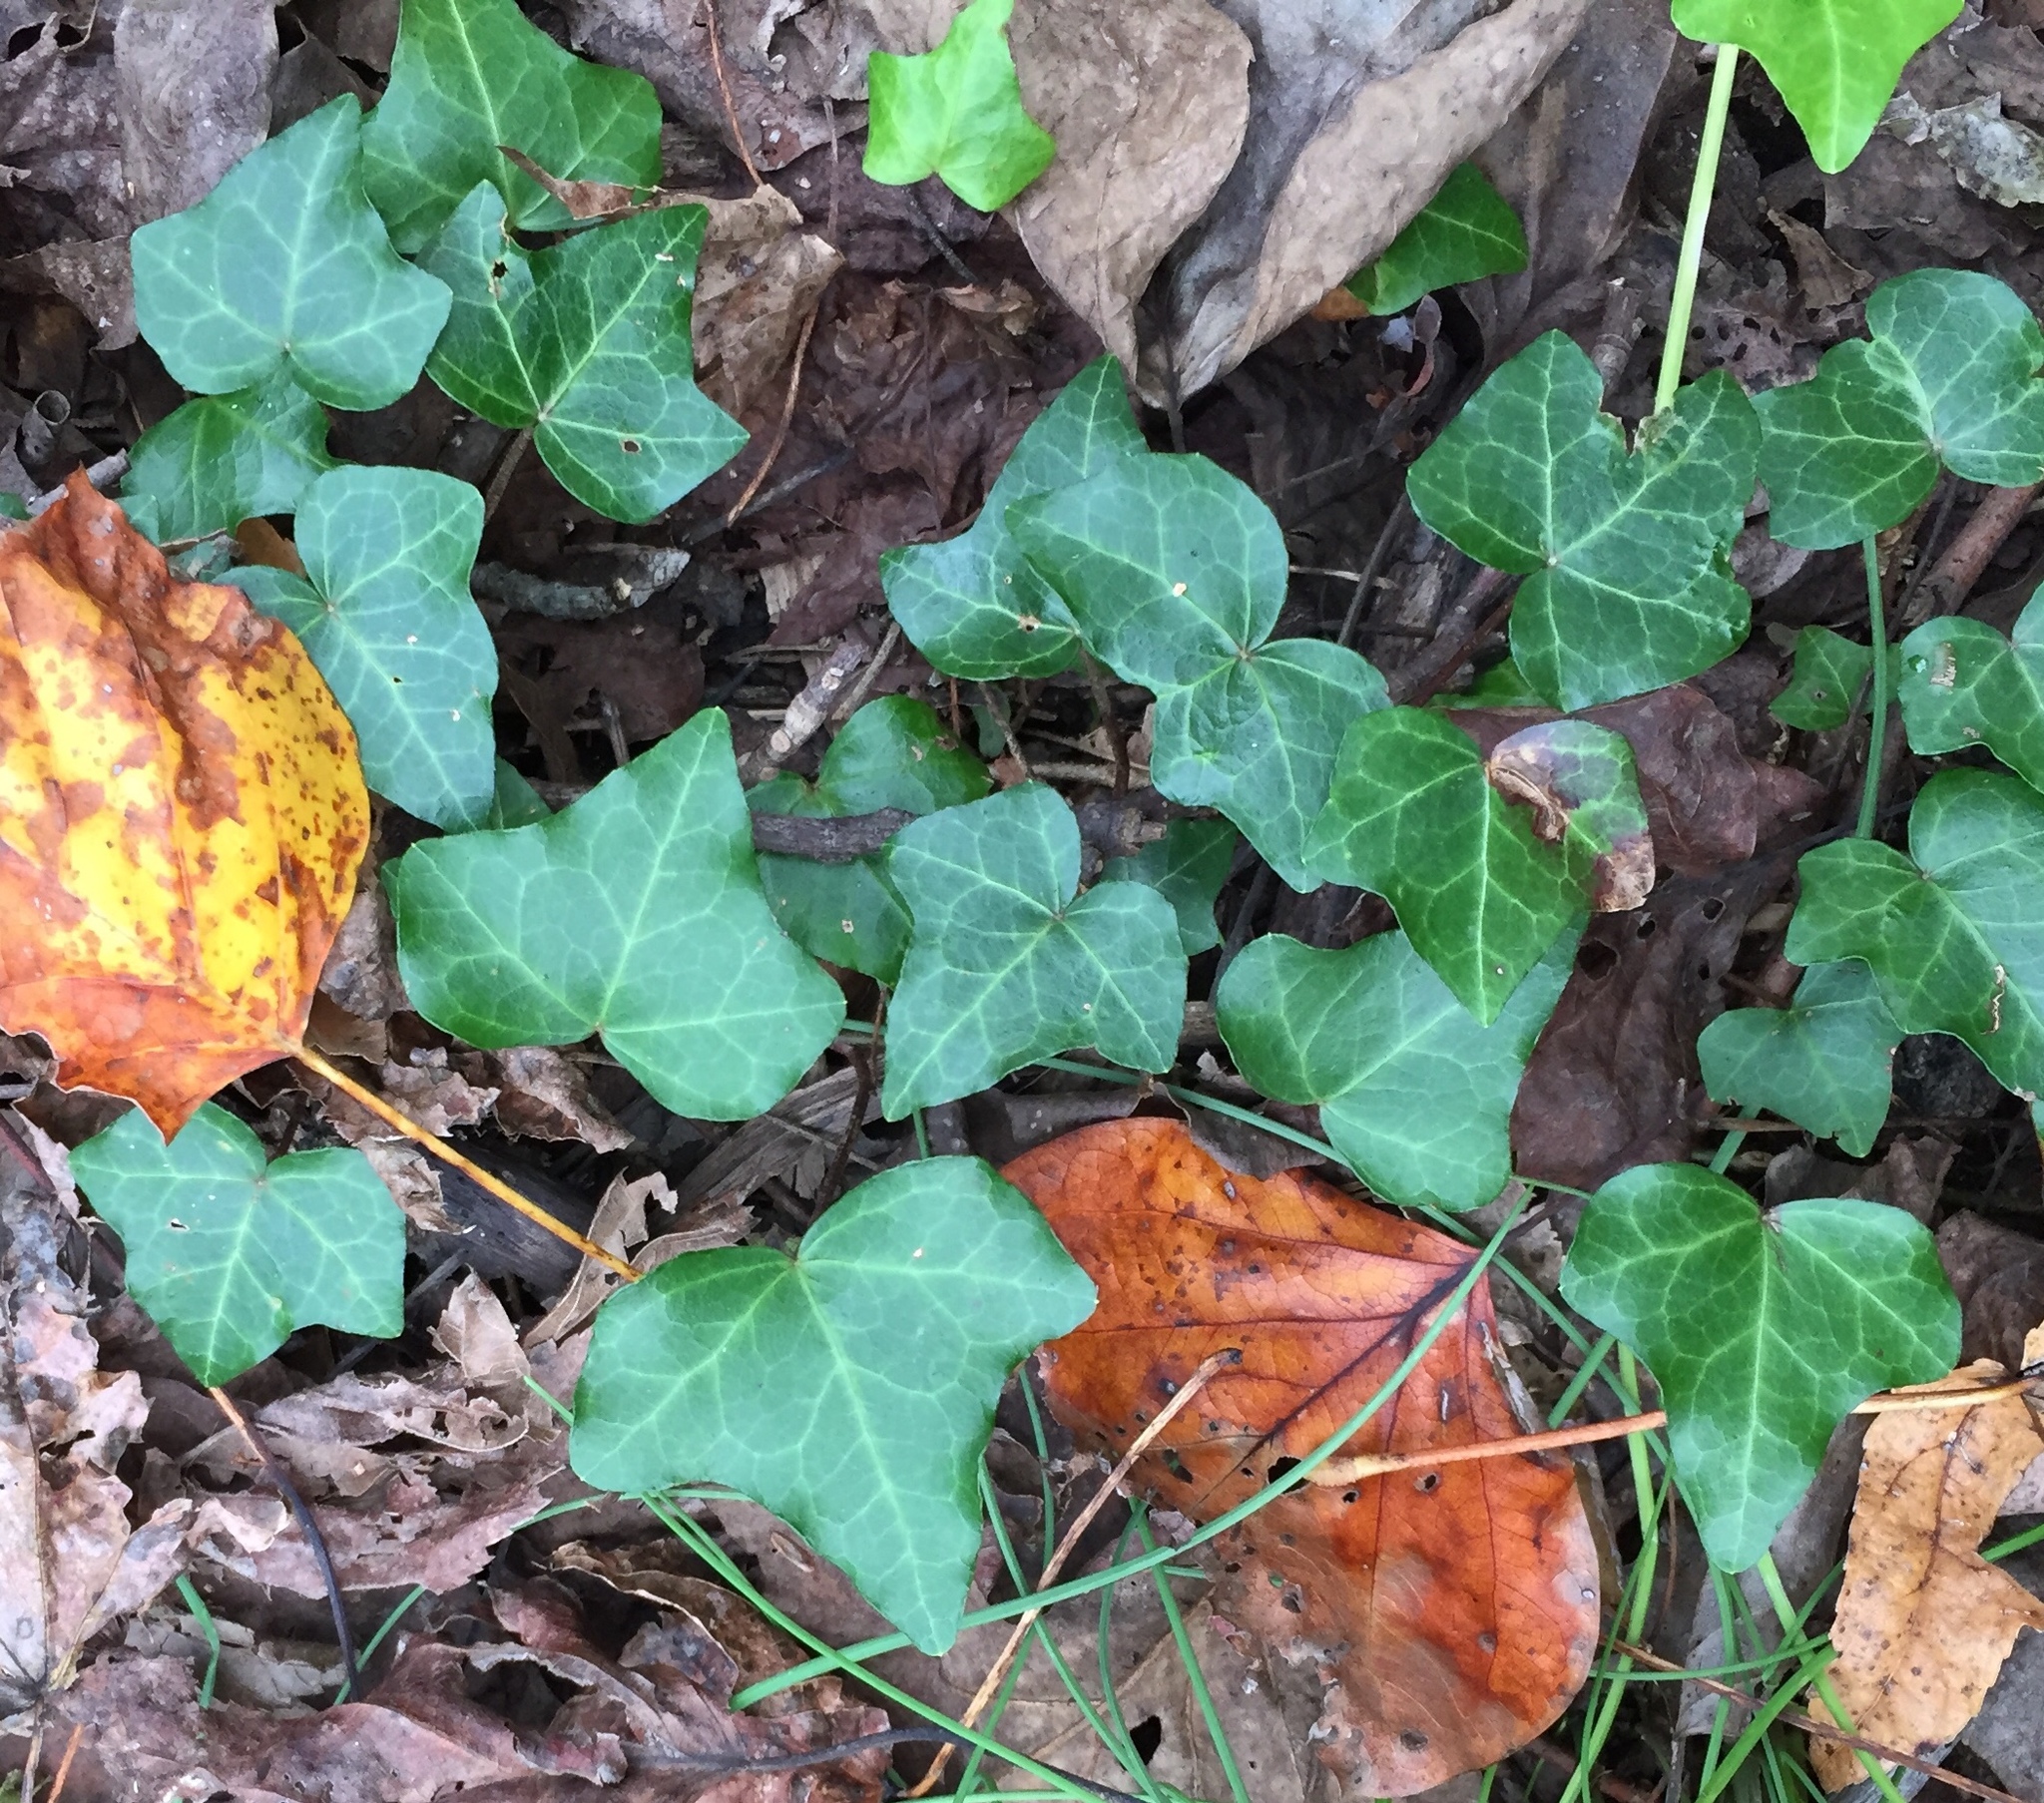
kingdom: Plantae
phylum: Tracheophyta
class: Magnoliopsida
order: Apiales
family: Araliaceae
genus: Hedera
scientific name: Hedera helix
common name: Ivy
